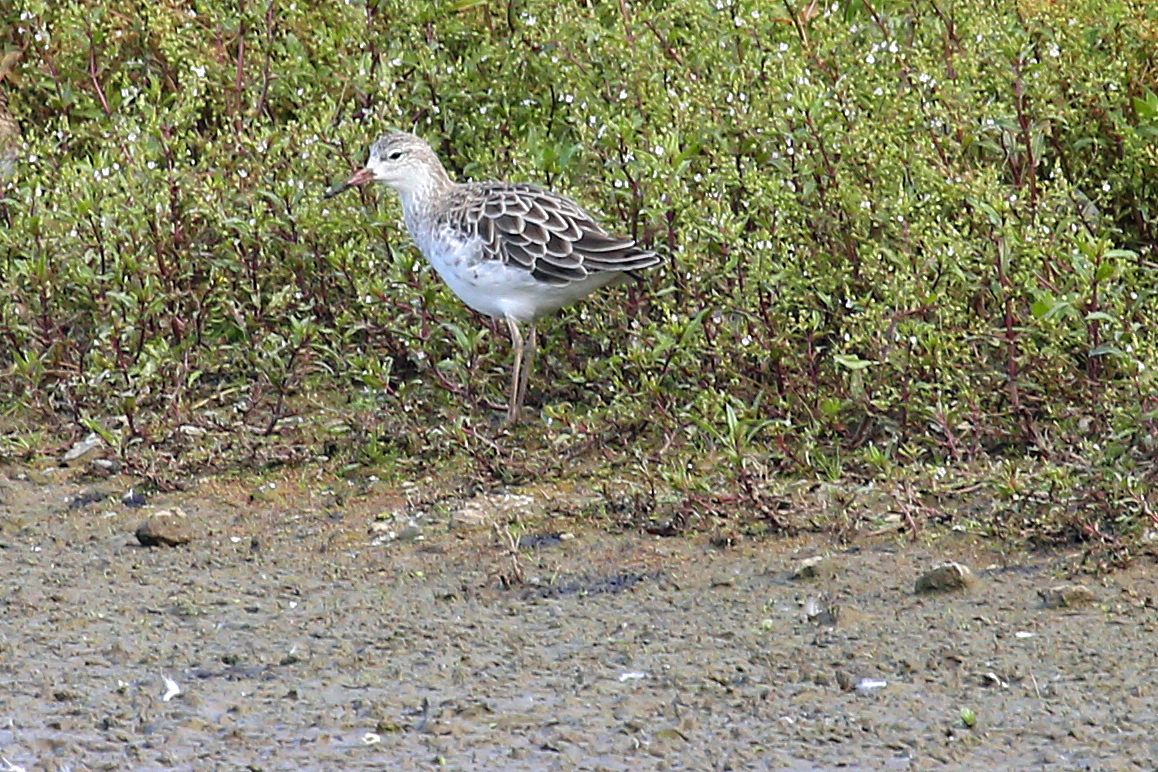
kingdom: Animalia
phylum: Chordata
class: Aves
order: Charadriiformes
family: Scolopacidae
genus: Calidris
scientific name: Calidris pugnax
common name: Ruff
